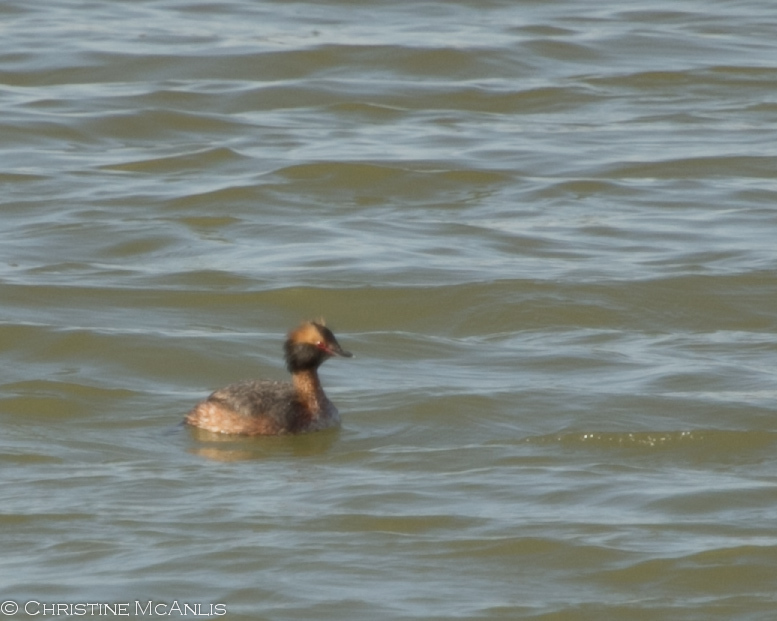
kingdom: Animalia
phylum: Chordata
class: Aves
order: Podicipediformes
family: Podicipedidae
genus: Podiceps
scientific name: Podiceps auritus
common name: Horned grebe
